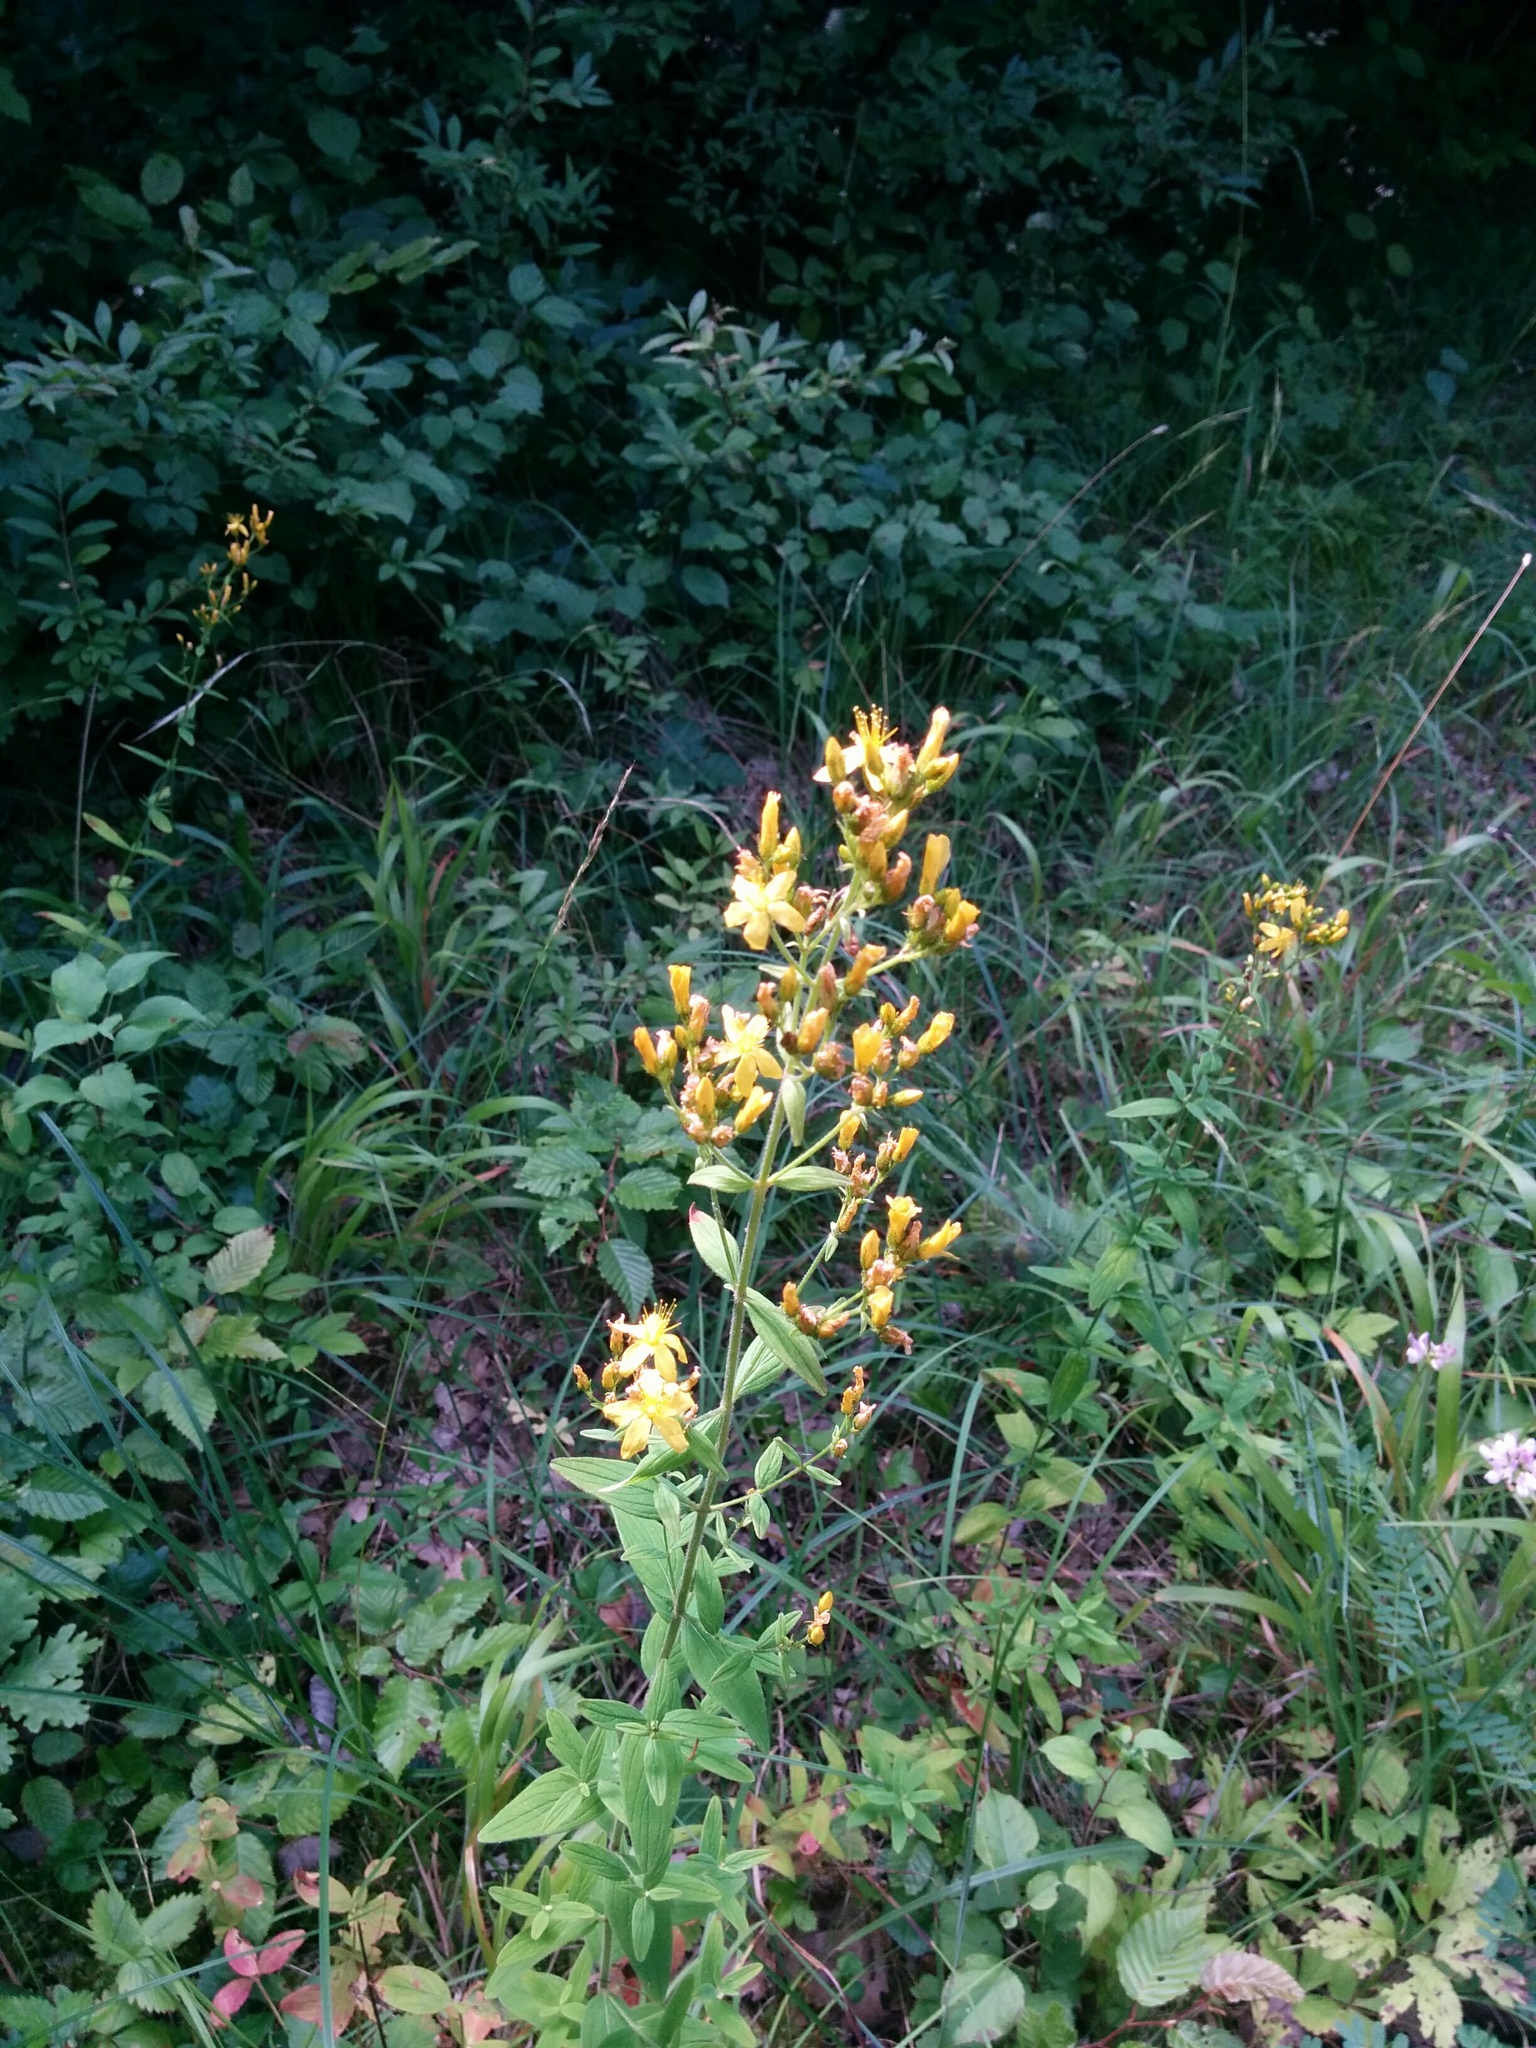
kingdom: Plantae
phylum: Tracheophyta
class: Magnoliopsida
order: Malpighiales
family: Hypericaceae
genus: Hypericum
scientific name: Hypericum hirsutum
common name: Hairy st. john's-wort
